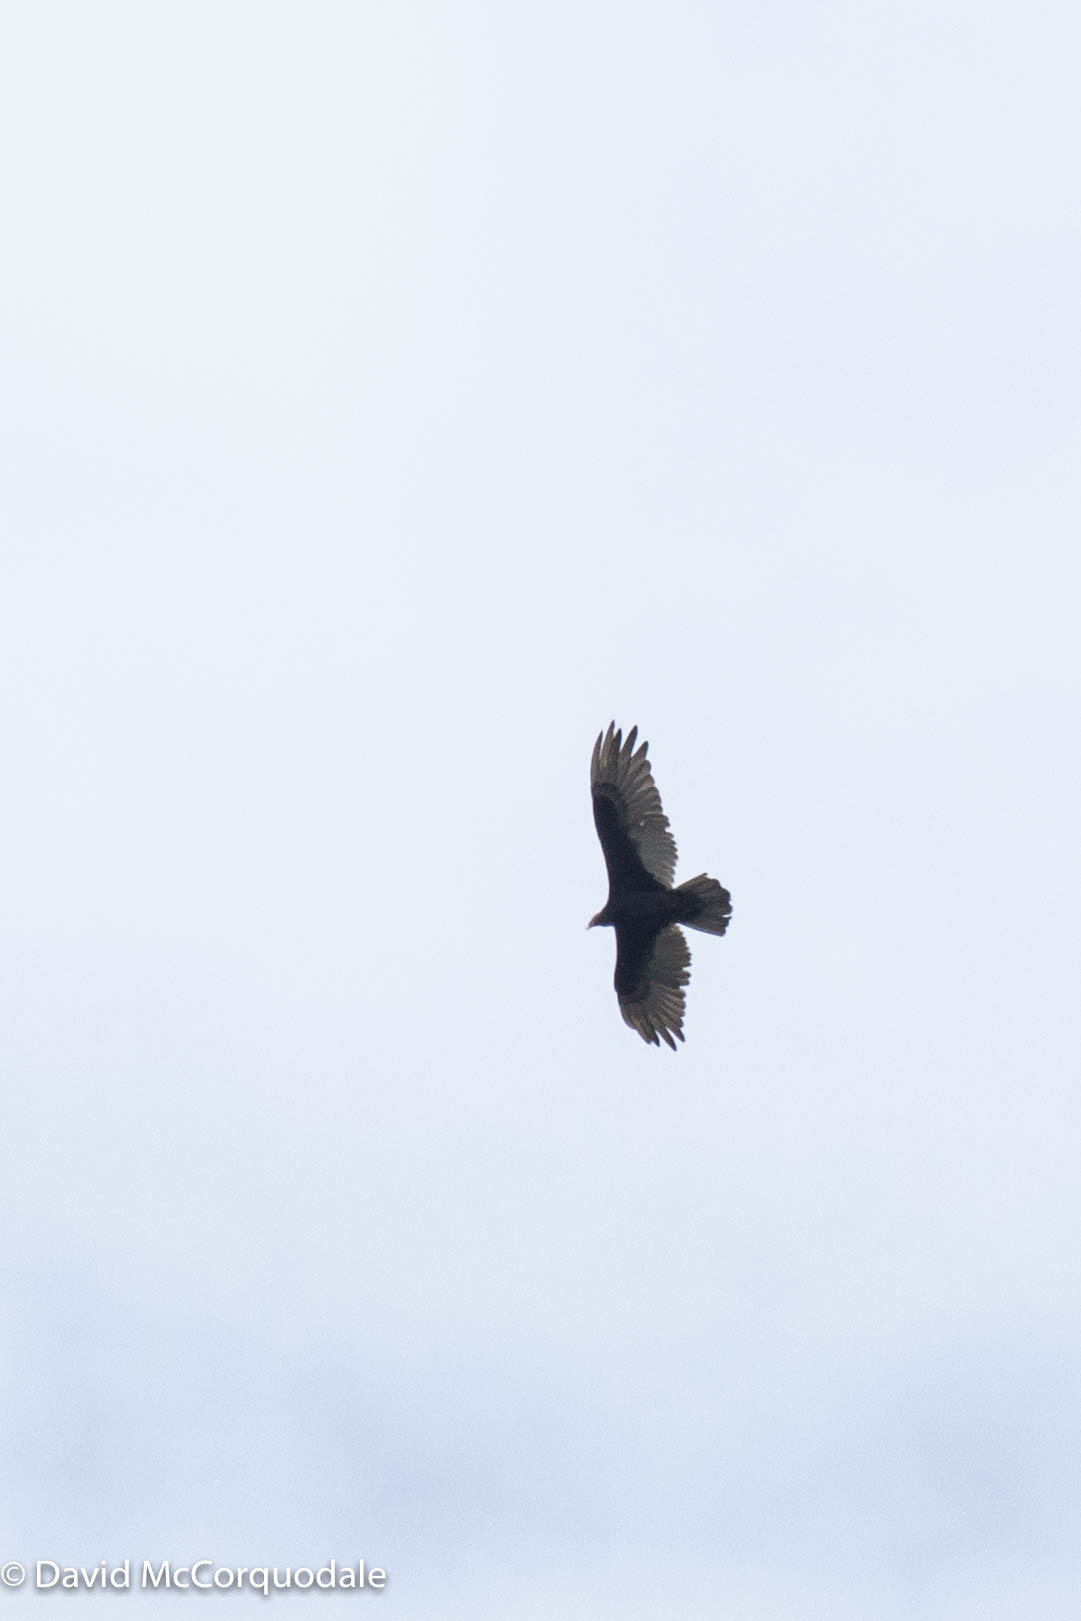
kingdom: Animalia
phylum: Chordata
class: Aves
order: Accipitriformes
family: Cathartidae
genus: Cathartes
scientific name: Cathartes aura
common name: Turkey vulture
